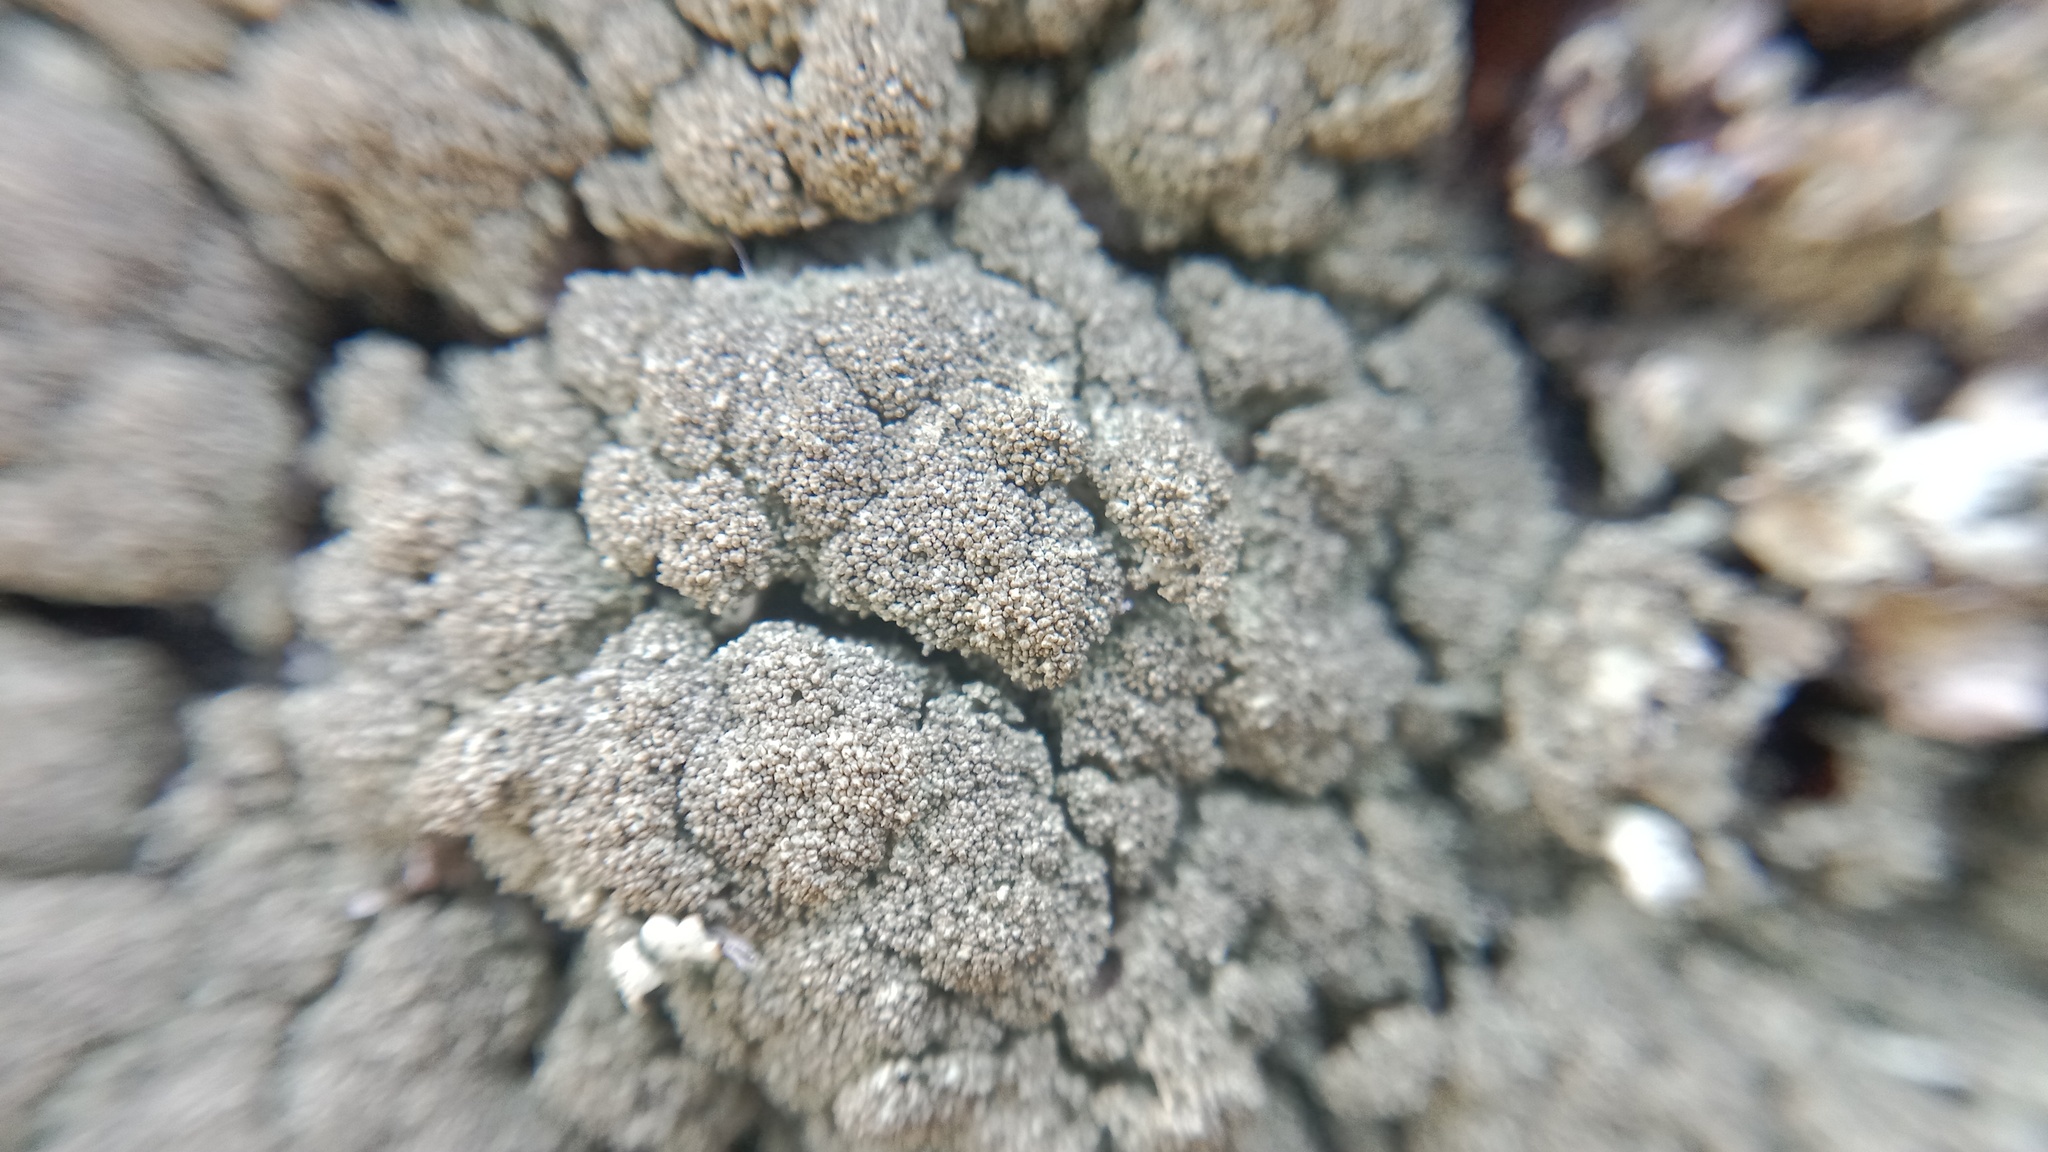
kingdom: Fungi
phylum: Ascomycota
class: Lecanoromycetes
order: Lecanorales
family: Parmeliaceae
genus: Xanthoparmelia
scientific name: Xanthoparmelia conspersa
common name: Peppered rock shield
